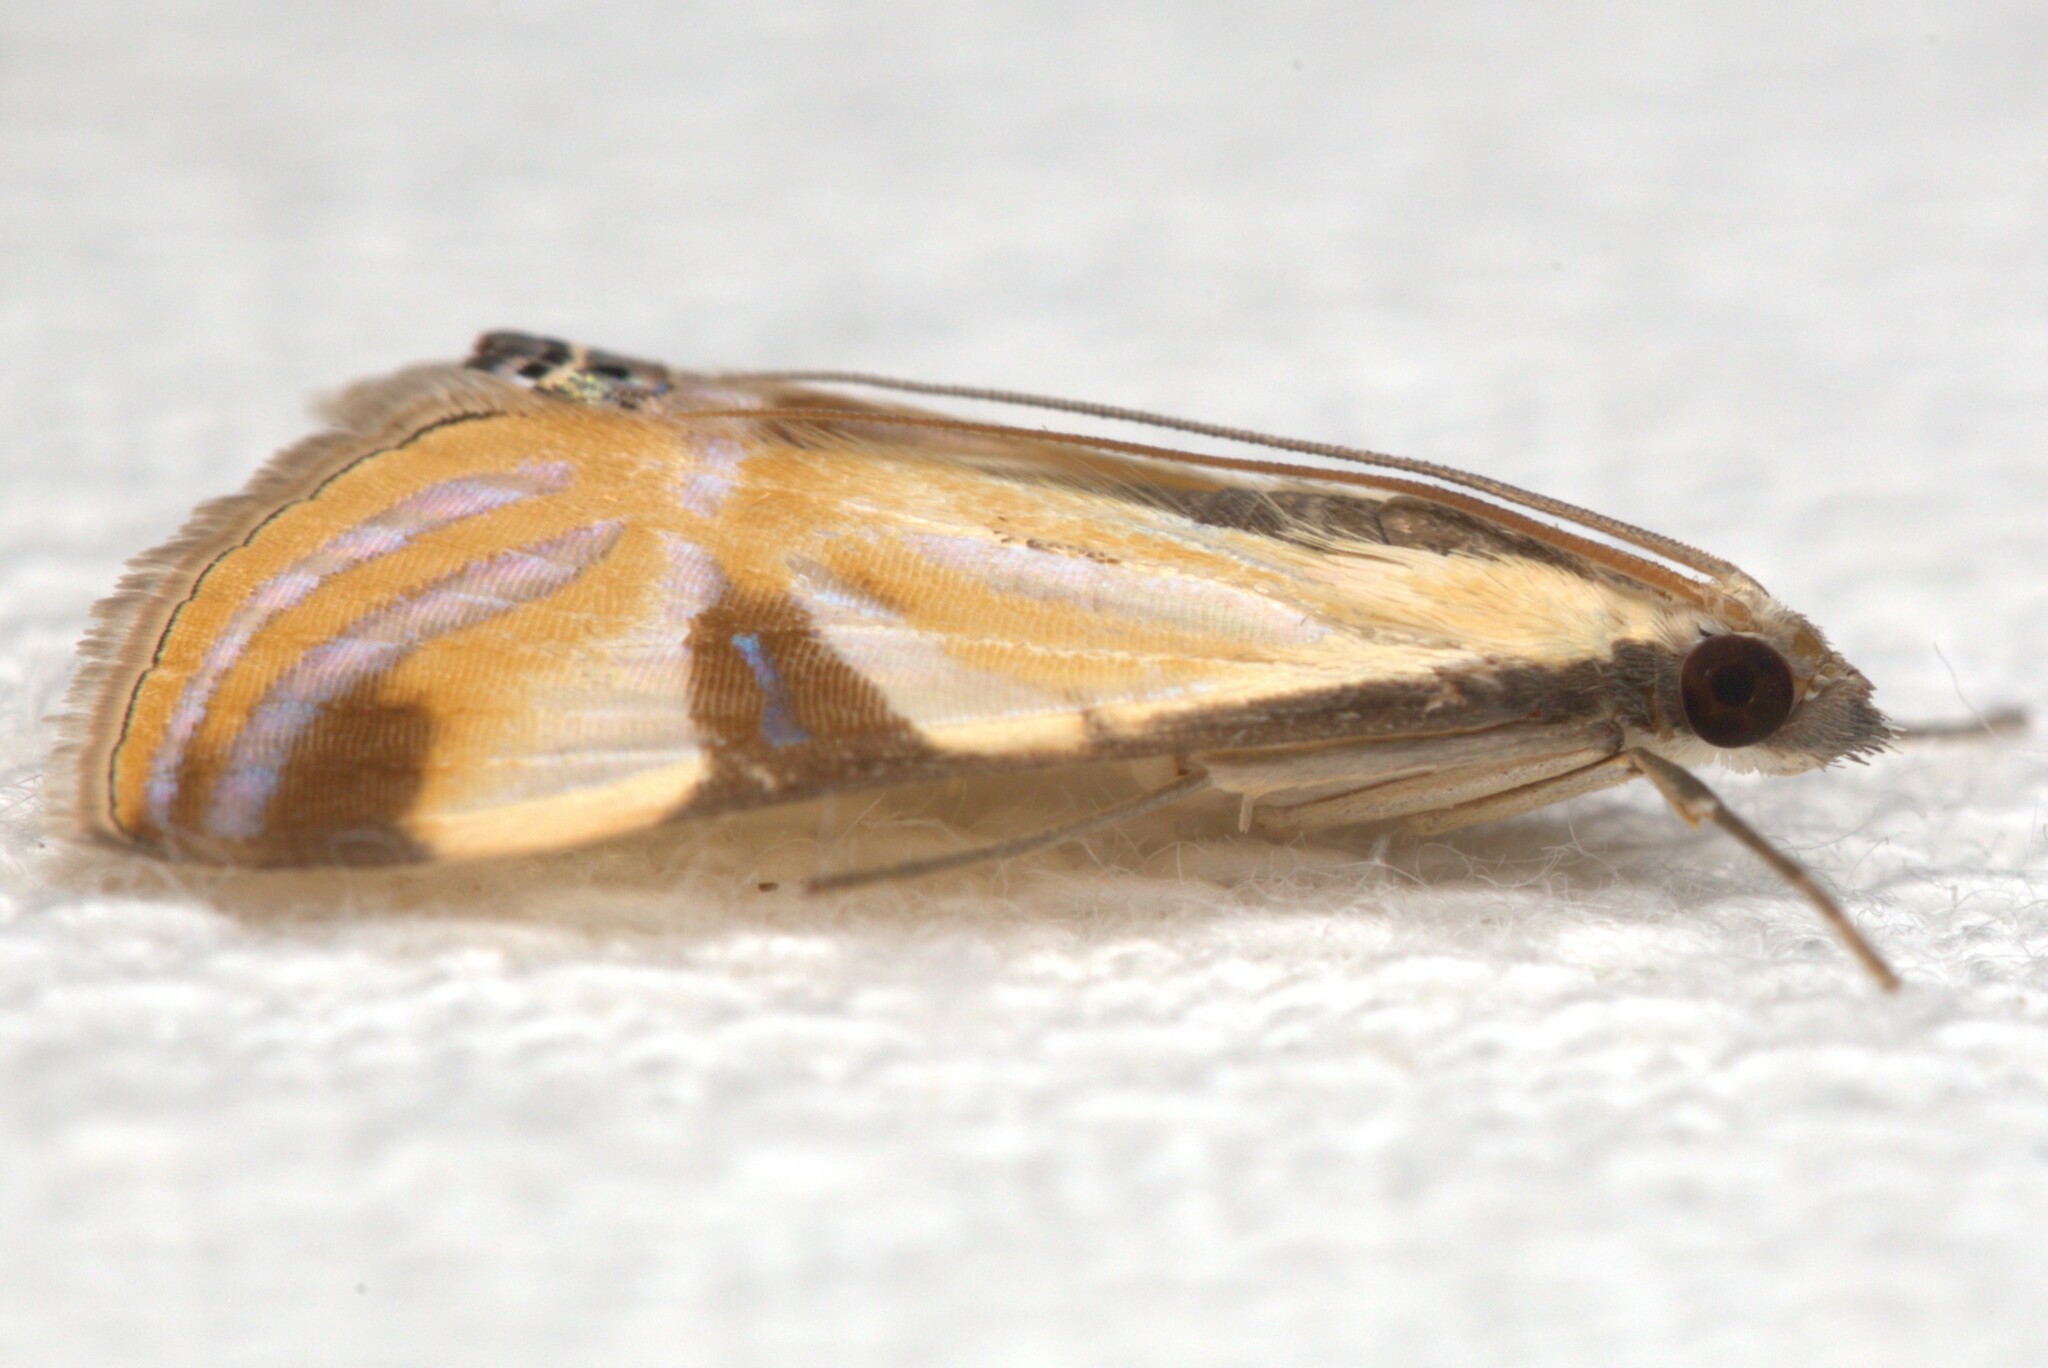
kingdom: Animalia
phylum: Arthropoda
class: Insecta
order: Lepidoptera
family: Crambidae
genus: Talanga
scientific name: Talanga tolumnialis
